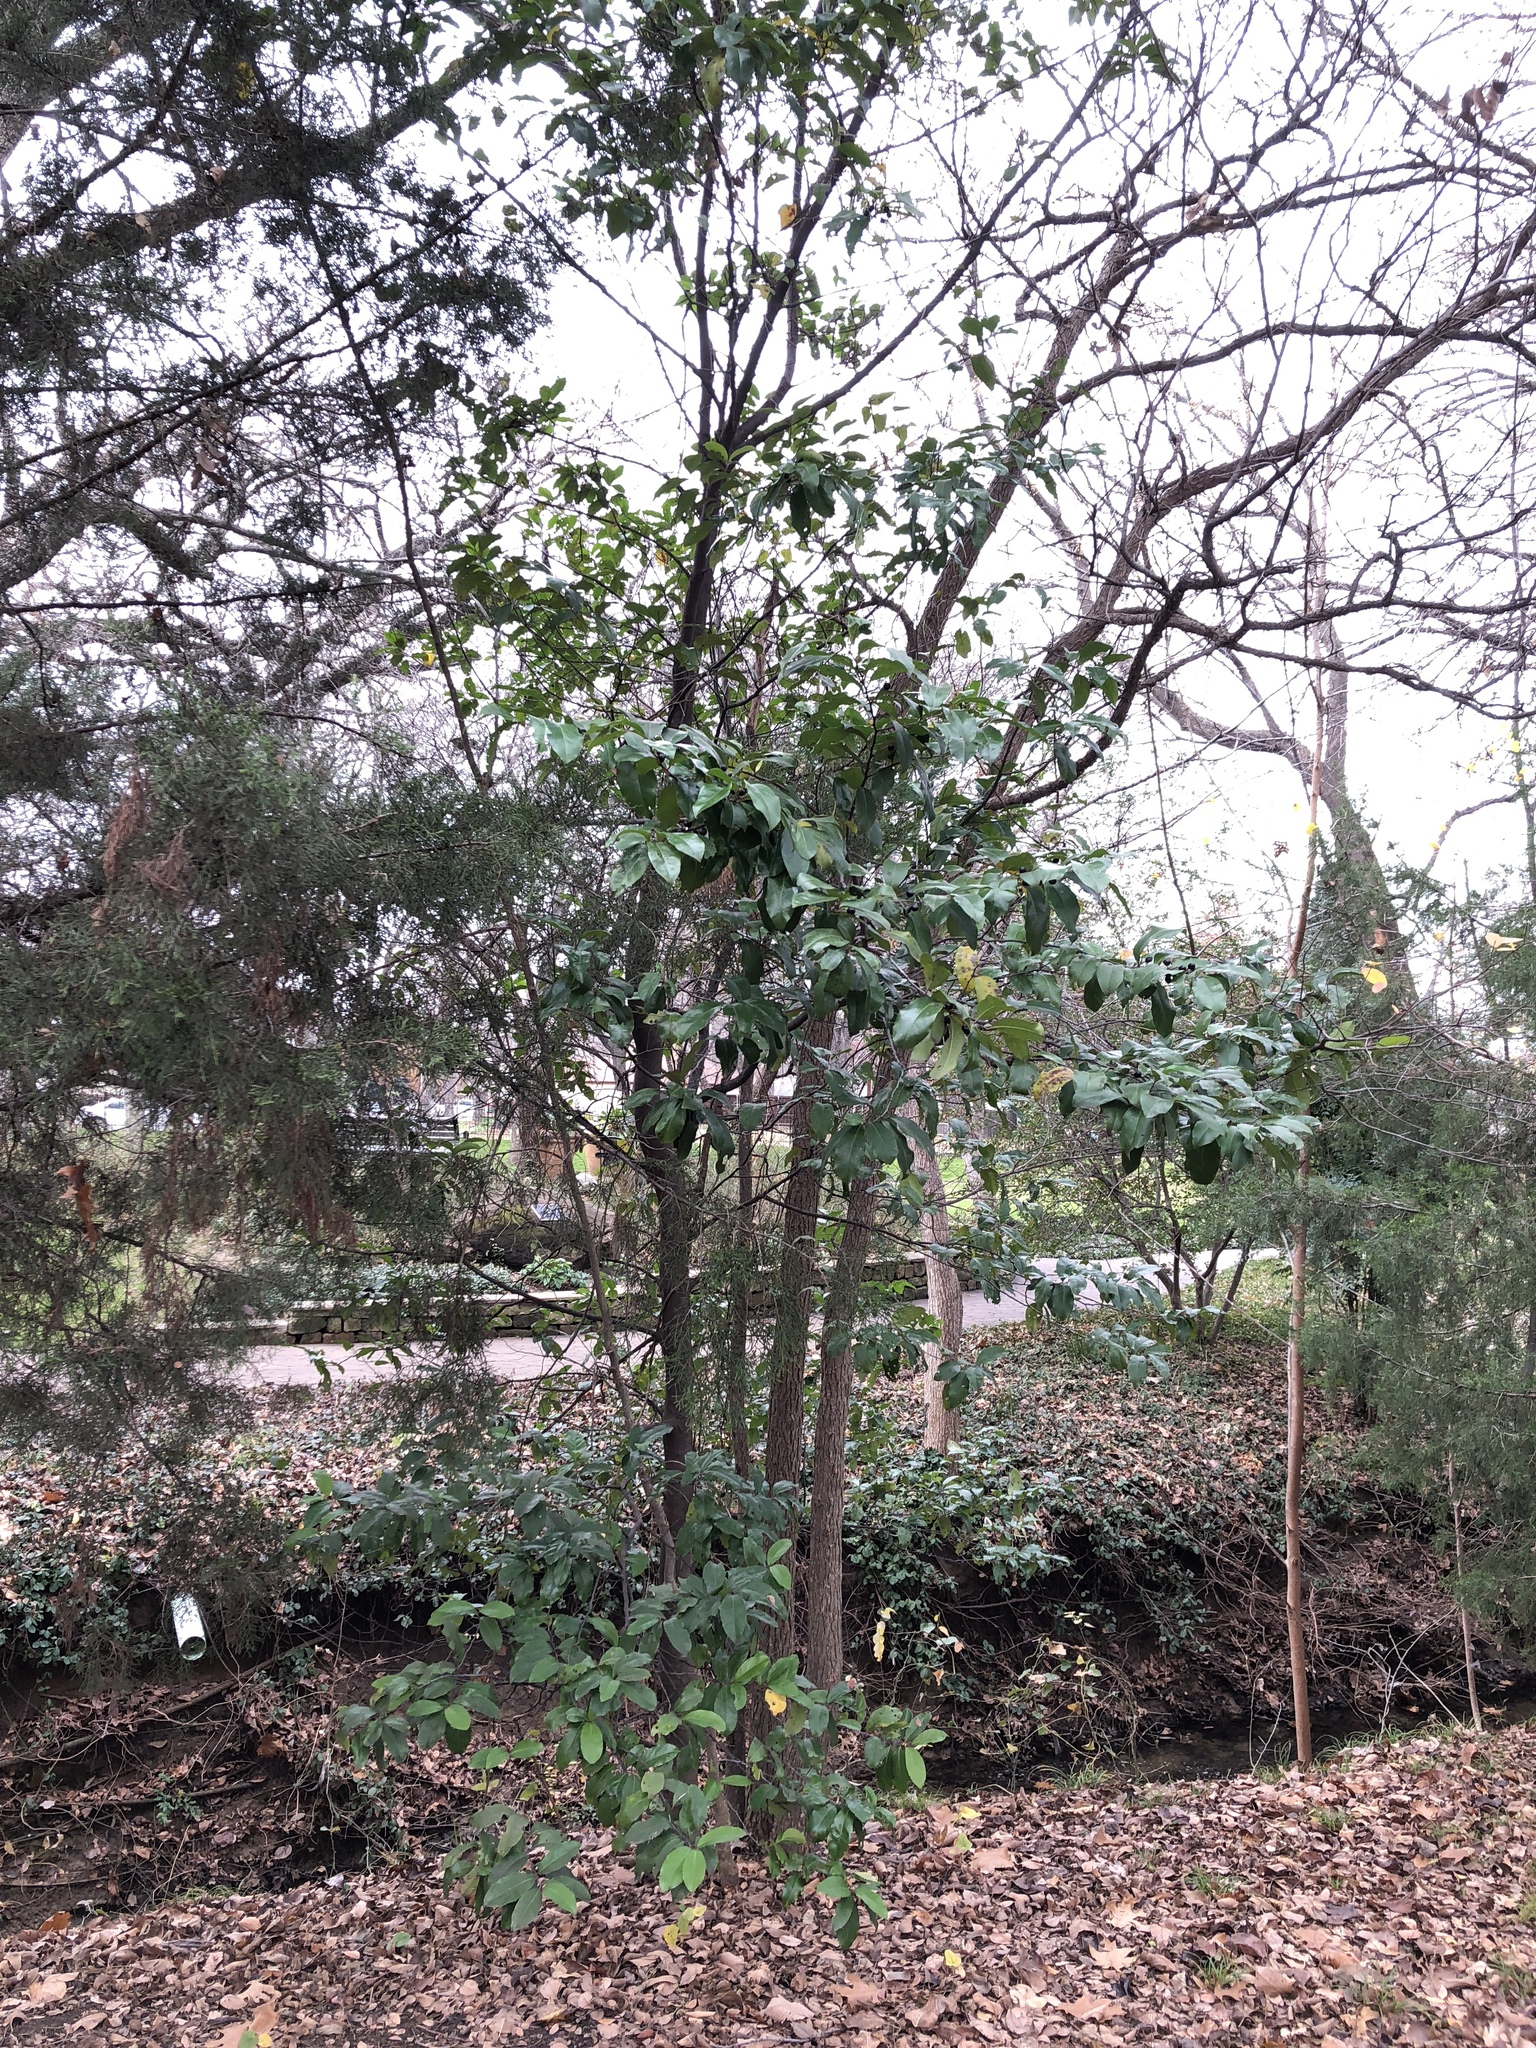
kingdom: Plantae
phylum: Tracheophyta
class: Magnoliopsida
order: Rosales
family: Rosaceae
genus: Prunus
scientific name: Prunus caroliniana
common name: Carolina laurel cherry
